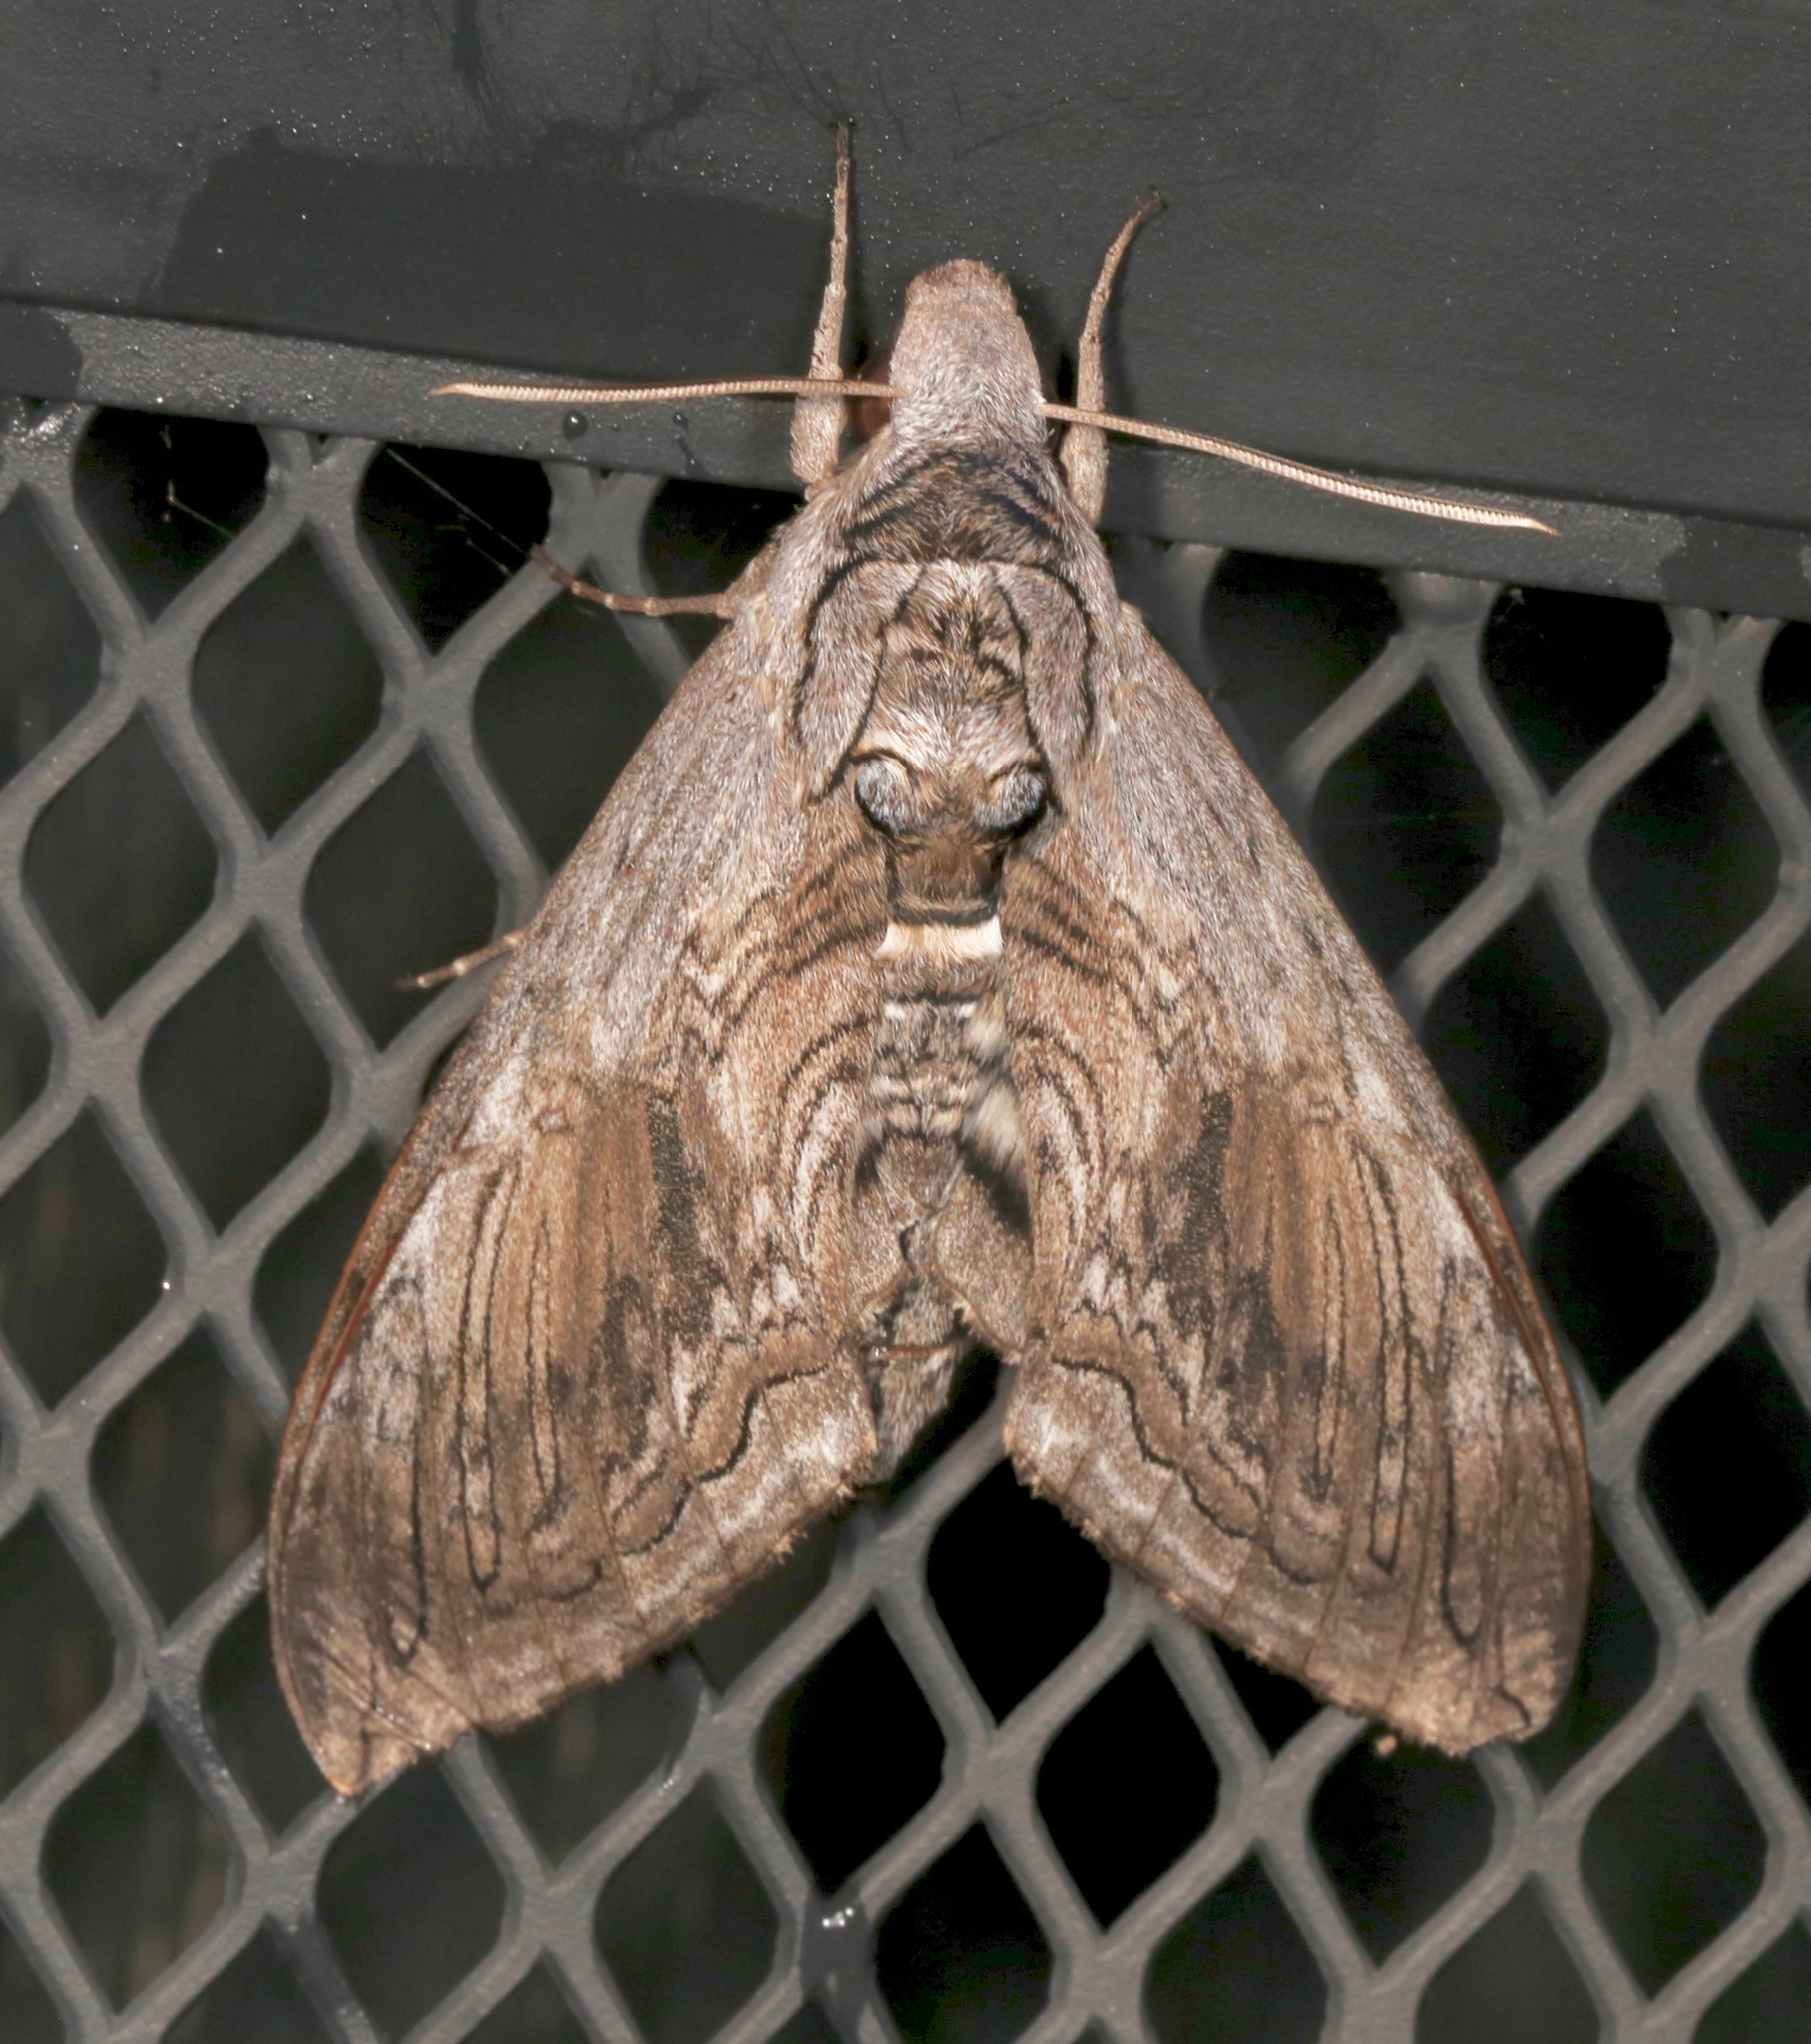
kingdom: Animalia
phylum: Arthropoda
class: Insecta
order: Lepidoptera
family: Sphingidae
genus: Manduca
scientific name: Manduca quinquemaculatus
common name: Five-spotted hawk-moth
